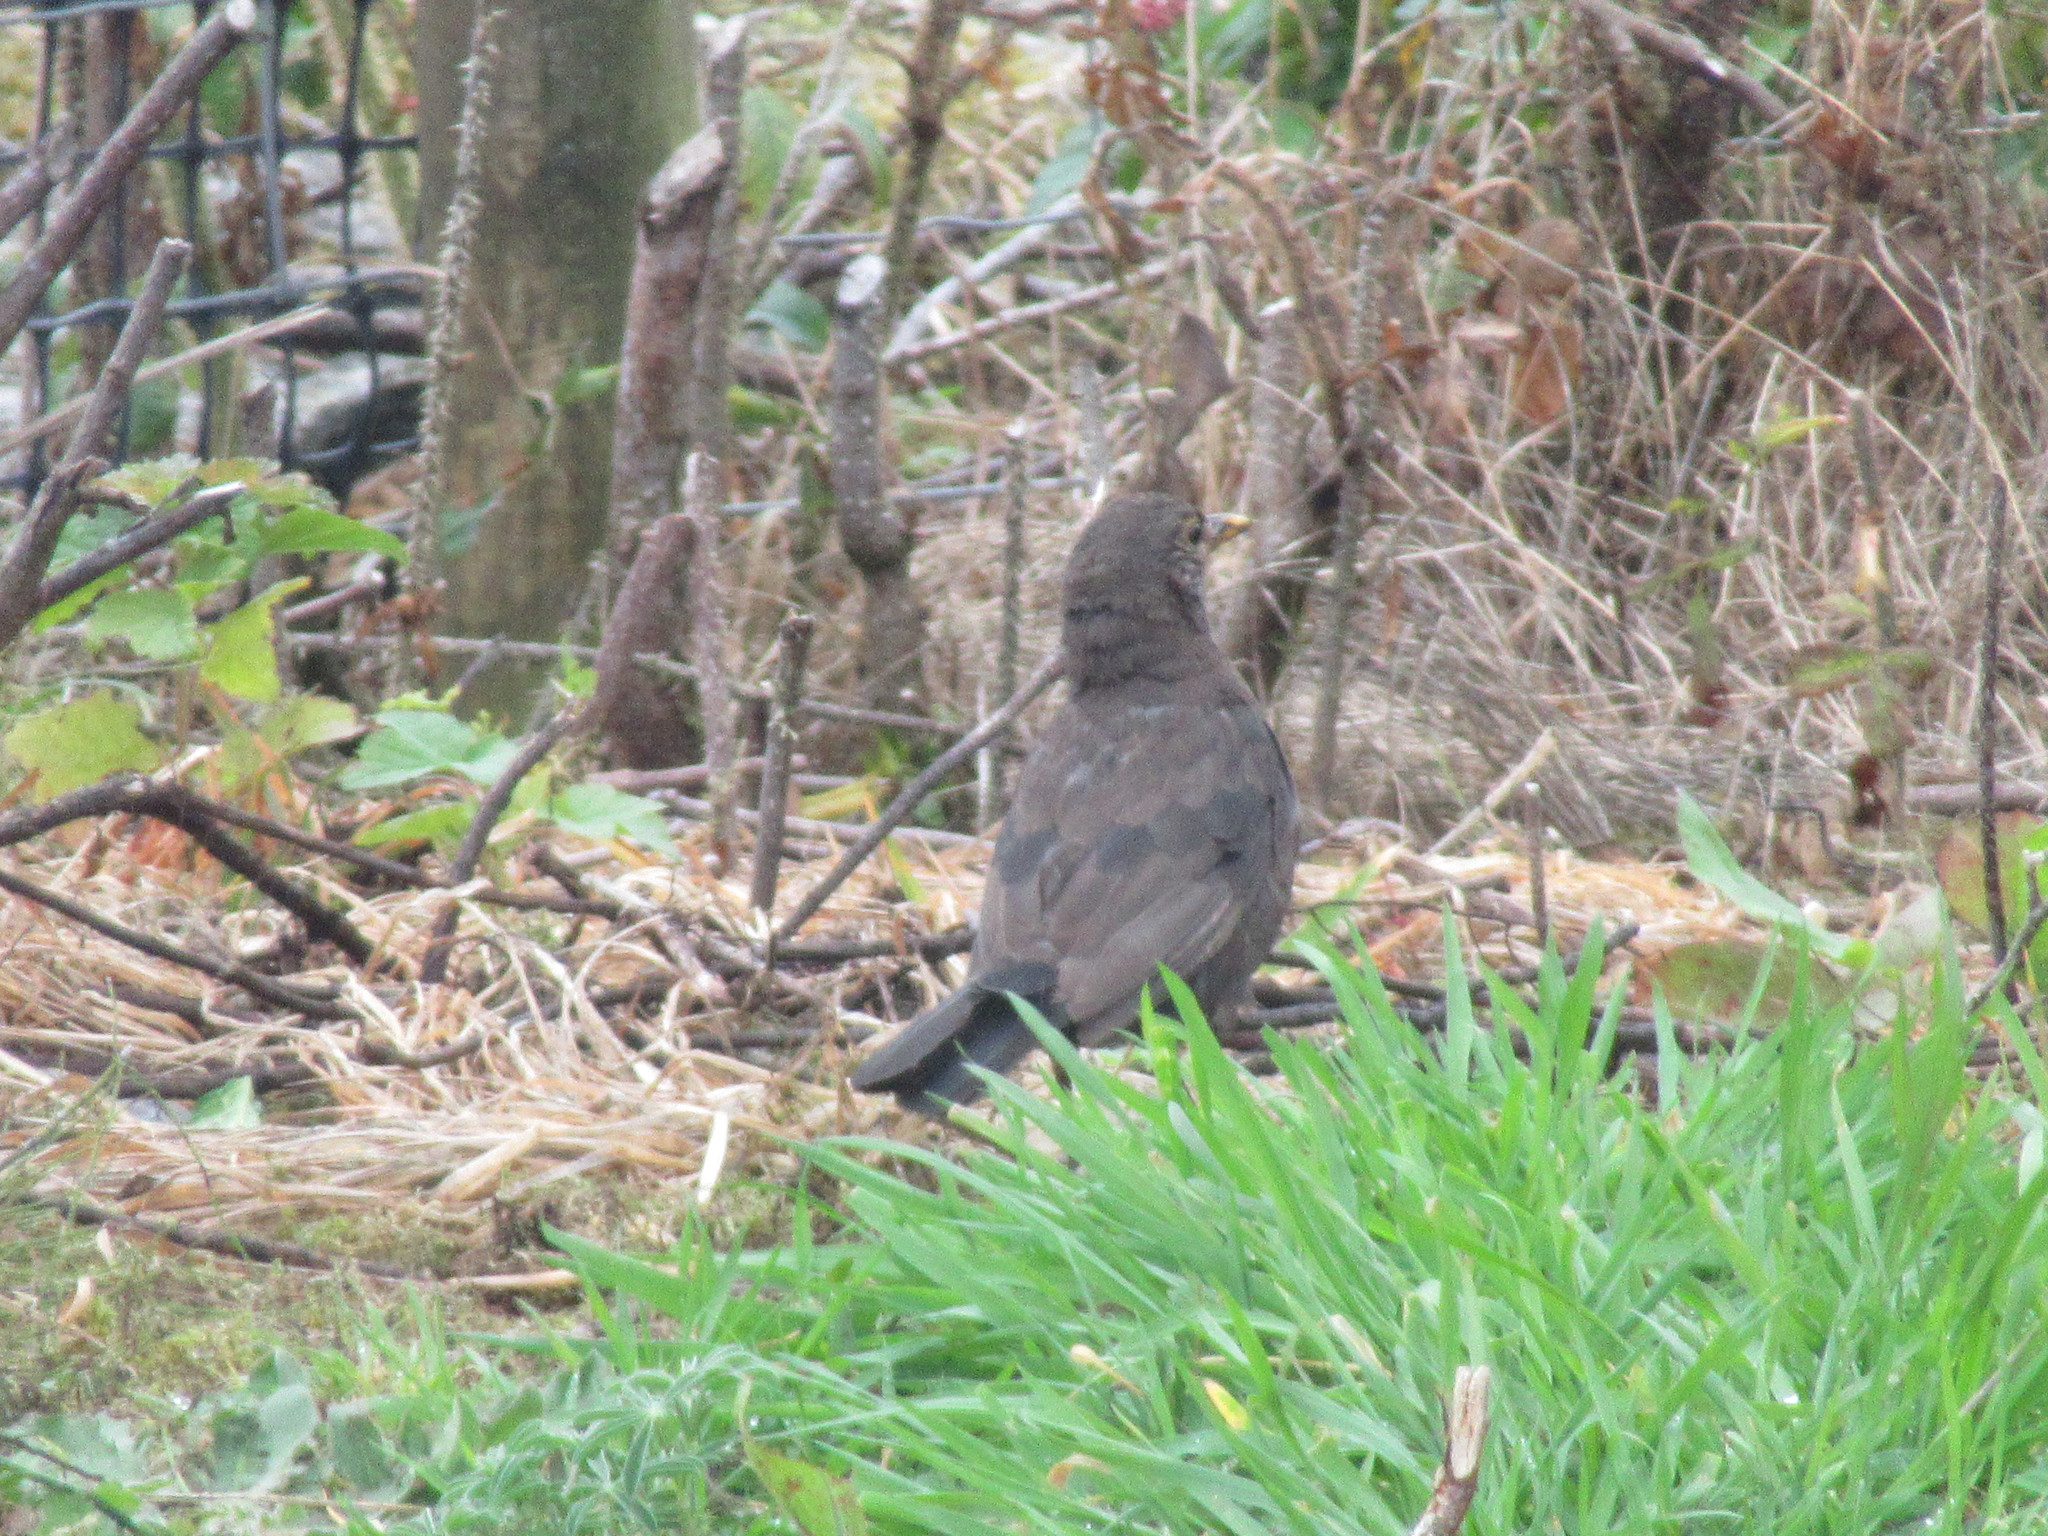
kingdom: Animalia
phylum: Chordata
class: Aves
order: Passeriformes
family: Turdidae
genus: Turdus
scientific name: Turdus merula
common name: Common blackbird
